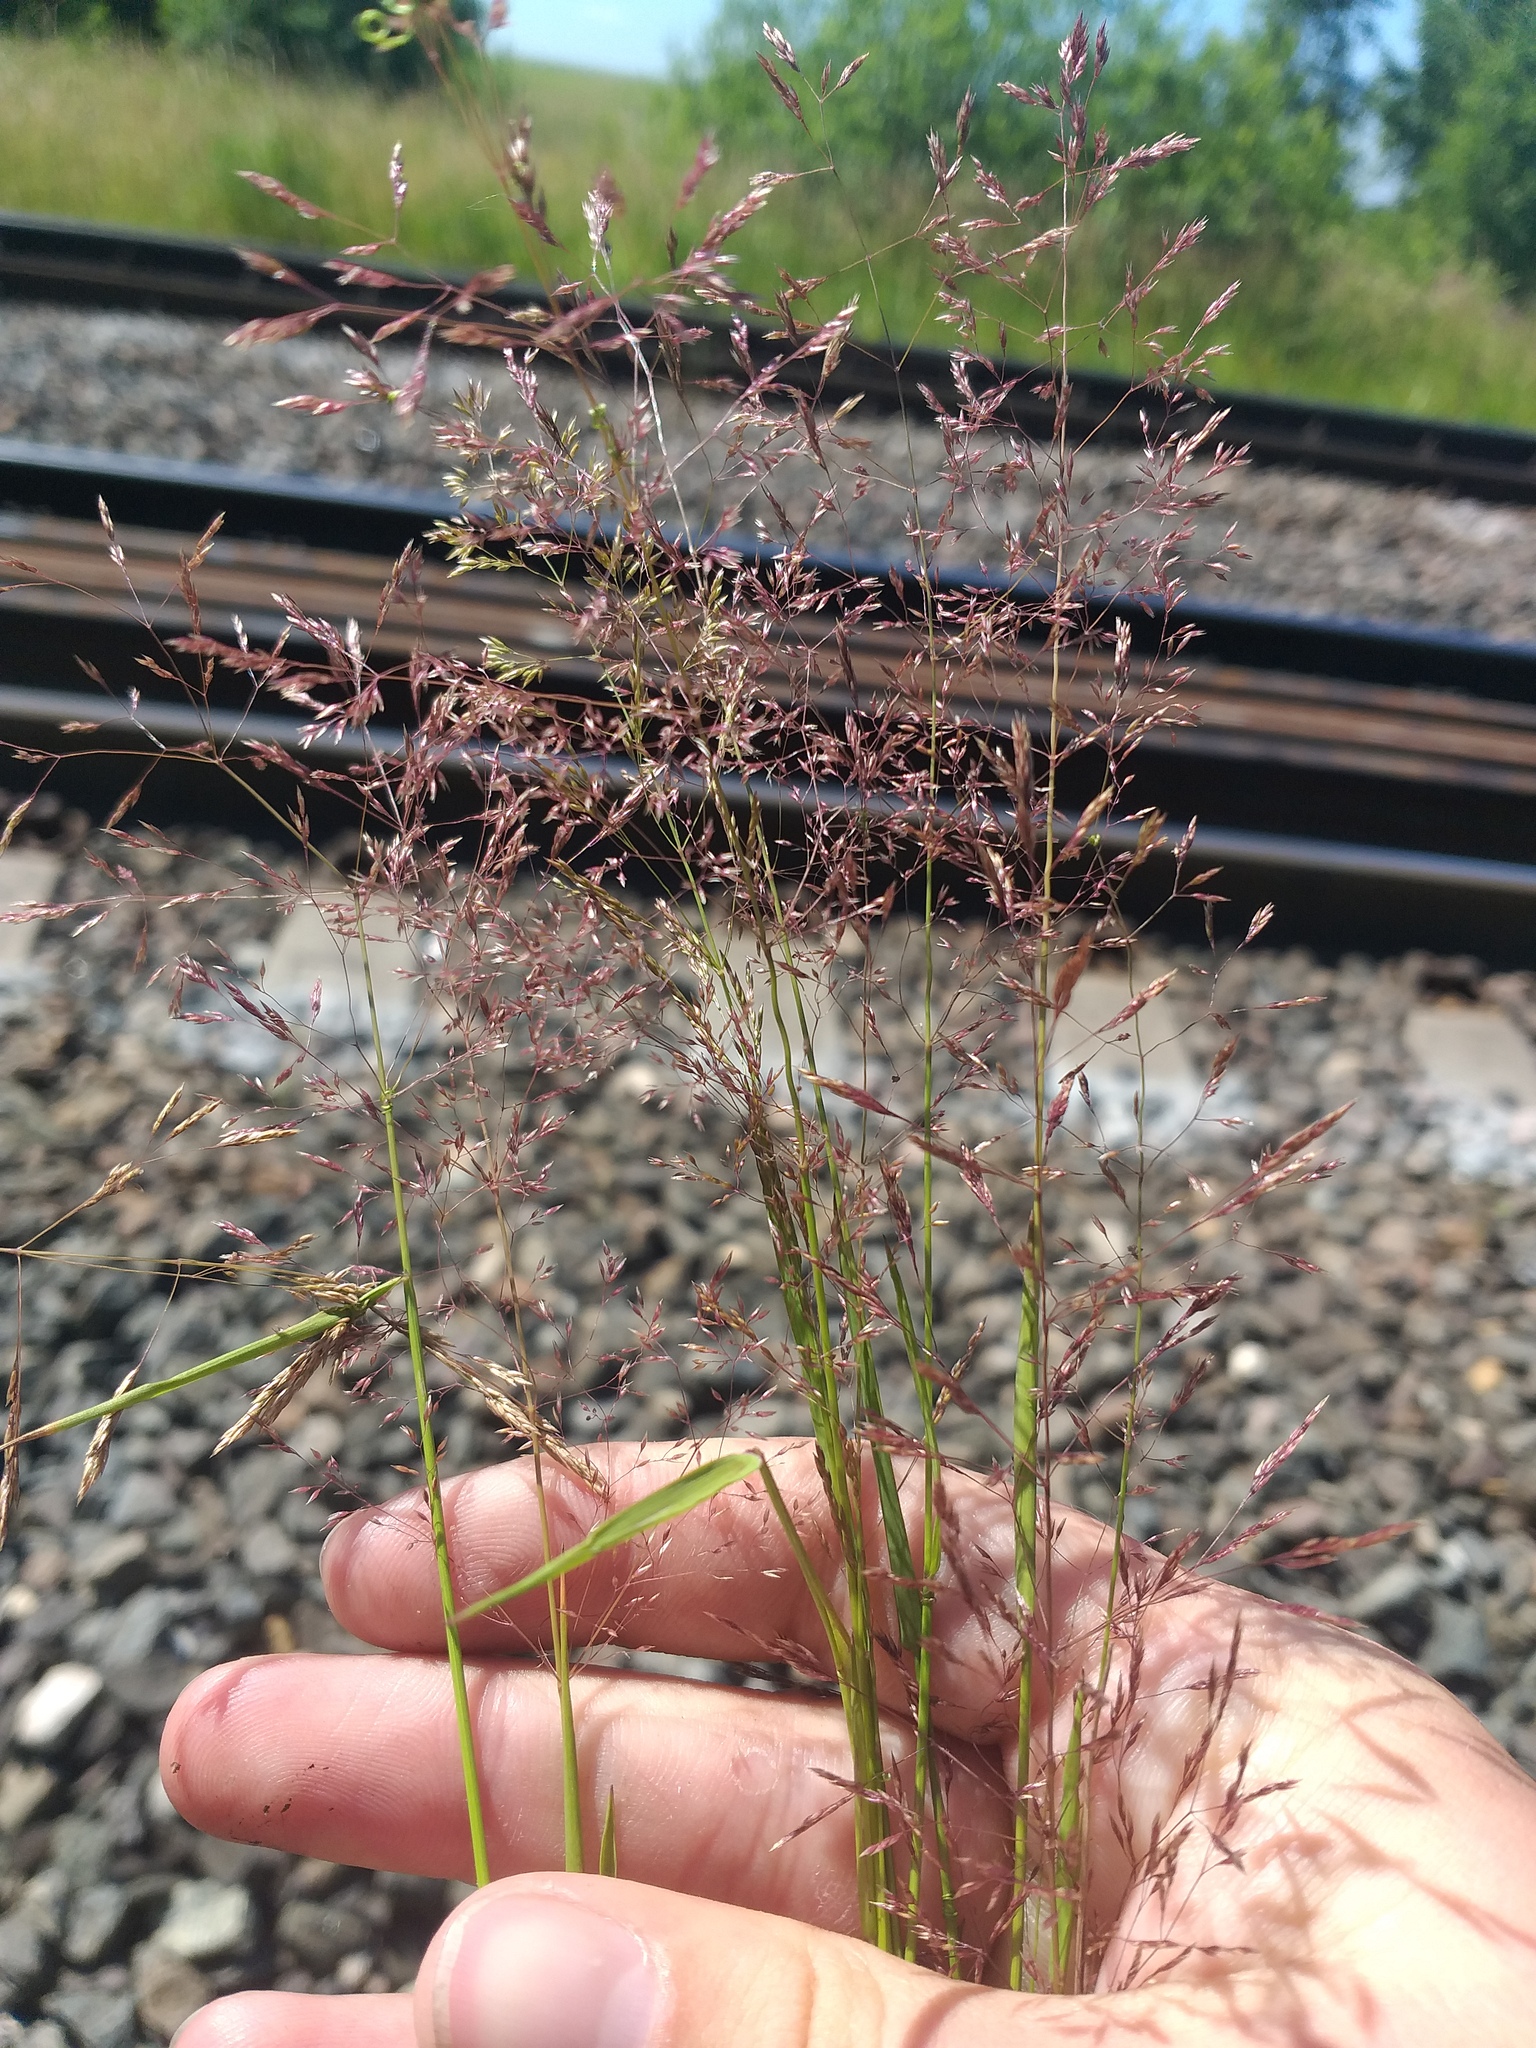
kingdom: Plantae
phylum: Tracheophyta
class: Liliopsida
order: Poales
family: Poaceae
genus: Agrostis
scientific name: Agrostis gigantea
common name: Black bent
